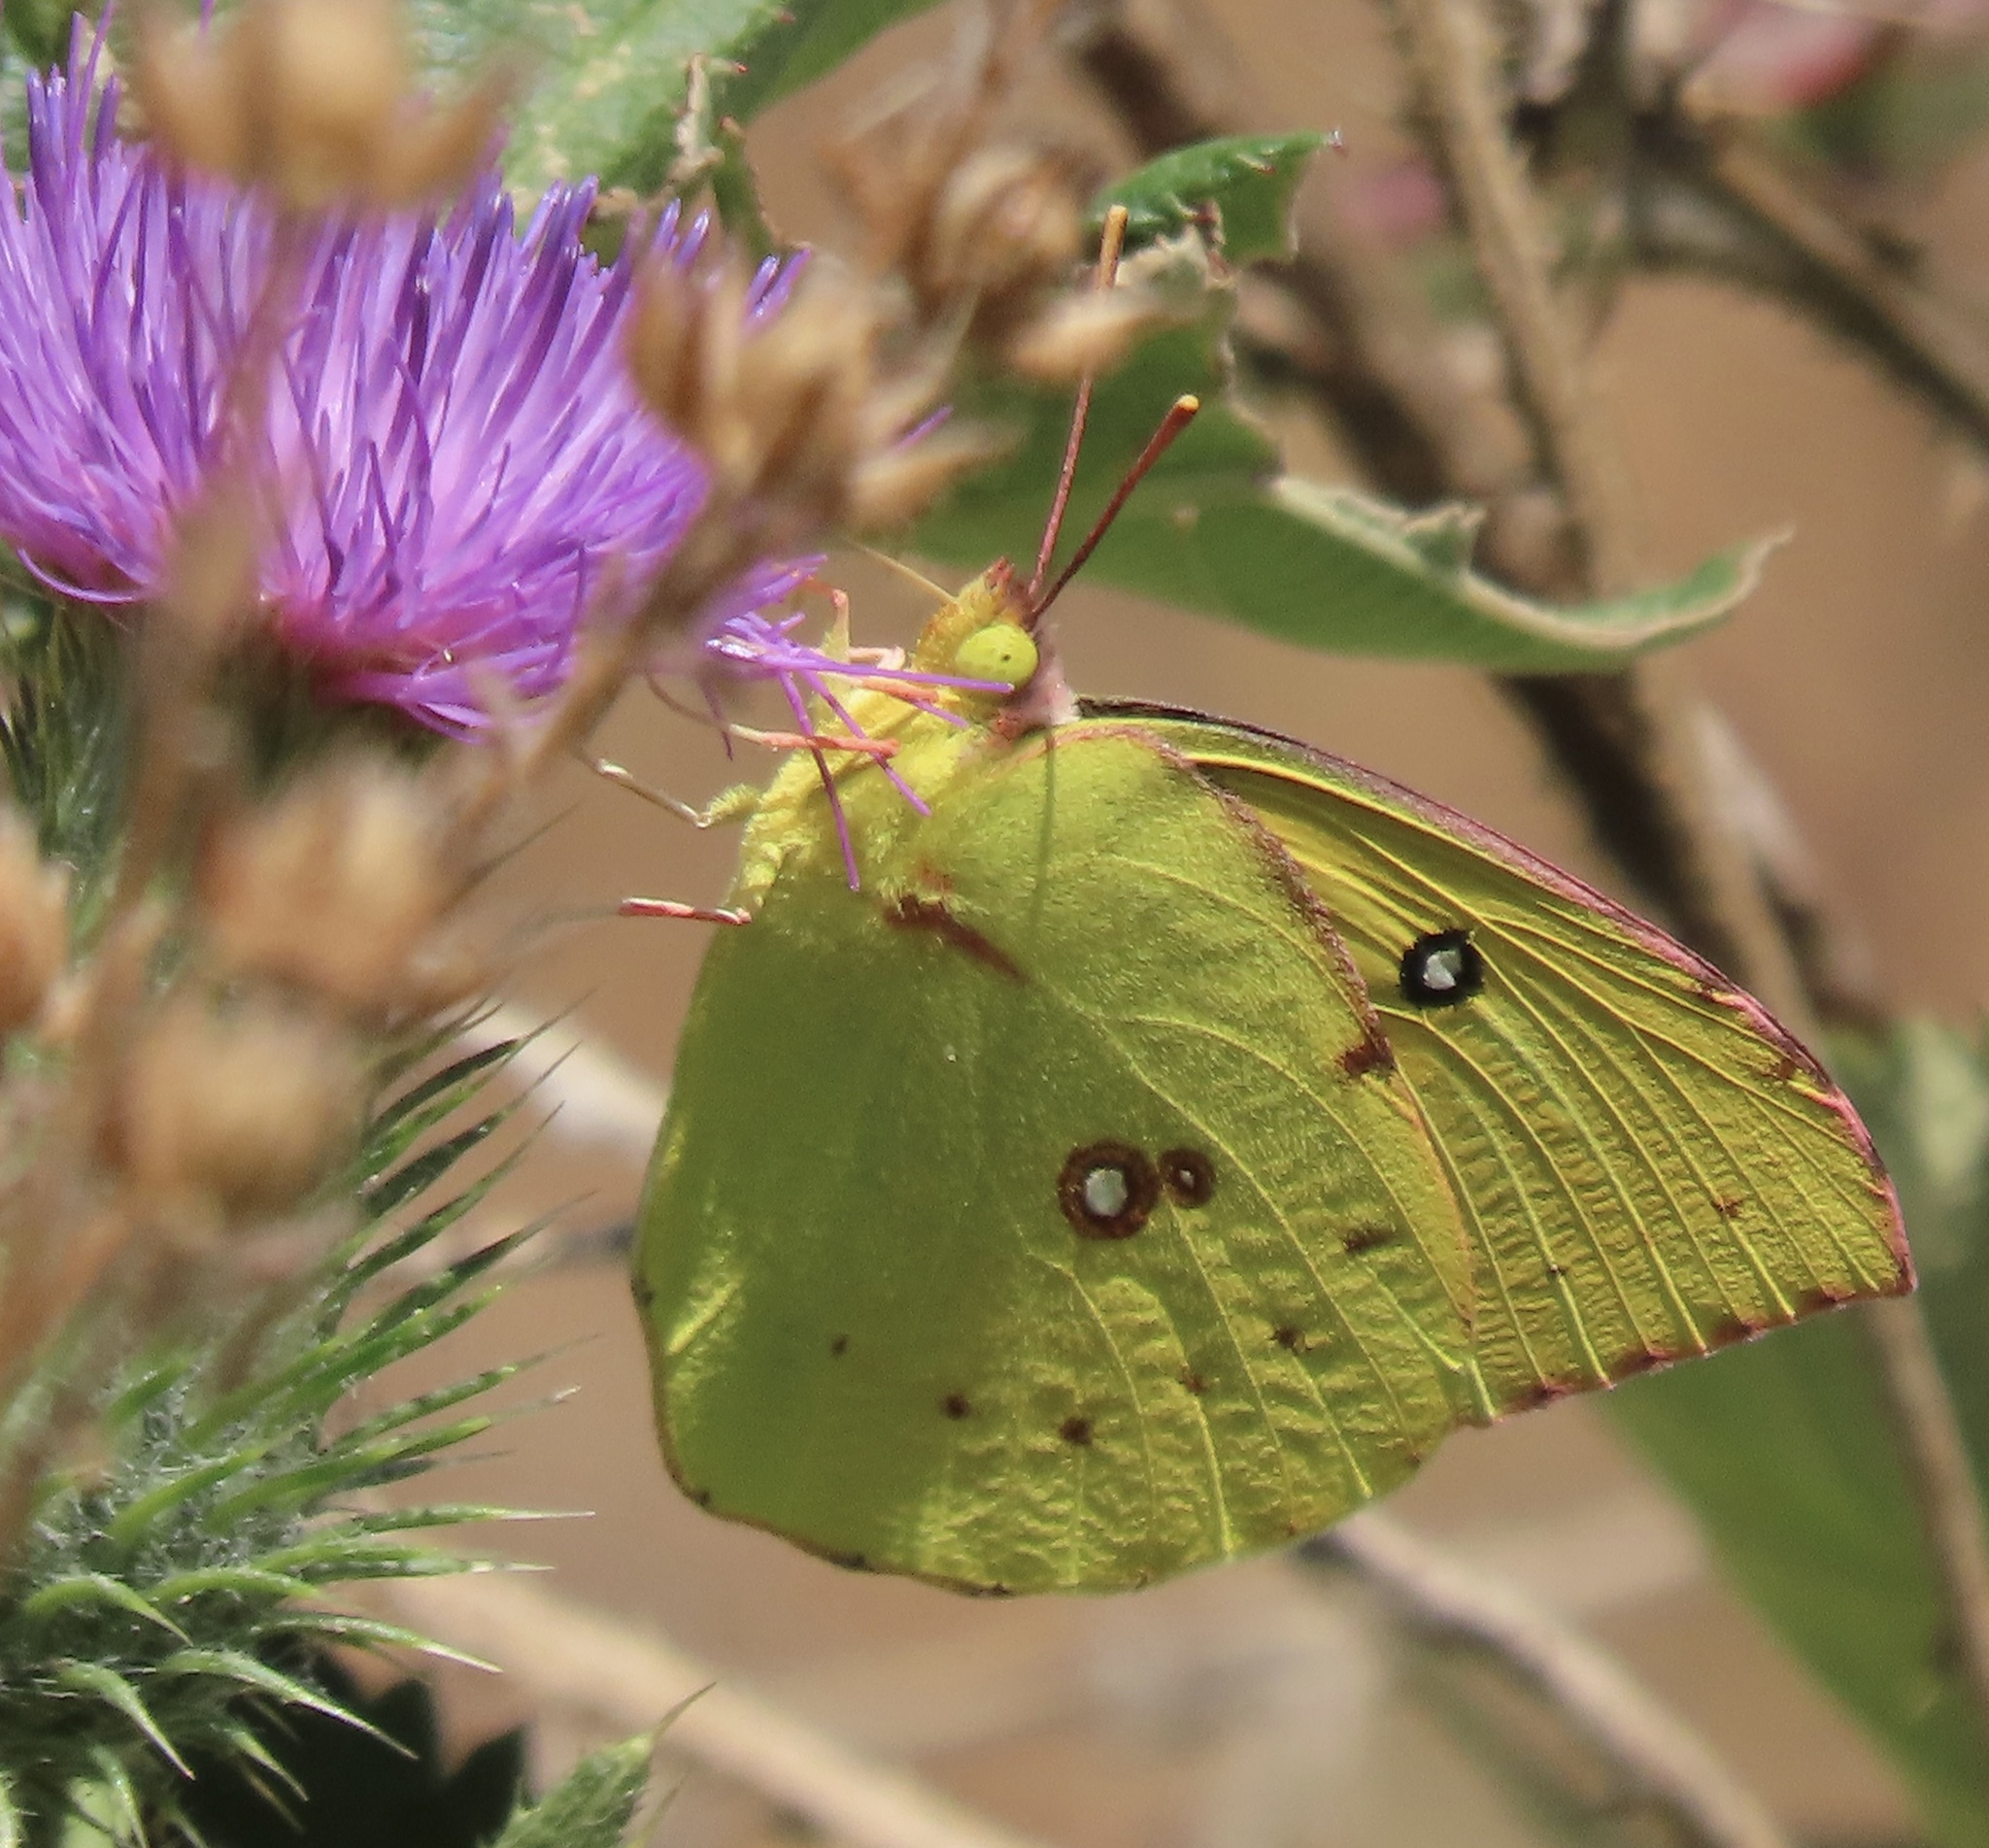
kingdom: Animalia
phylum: Arthropoda
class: Insecta
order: Lepidoptera
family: Pieridae
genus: Zerene
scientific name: Zerene eurydice
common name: California dogface
